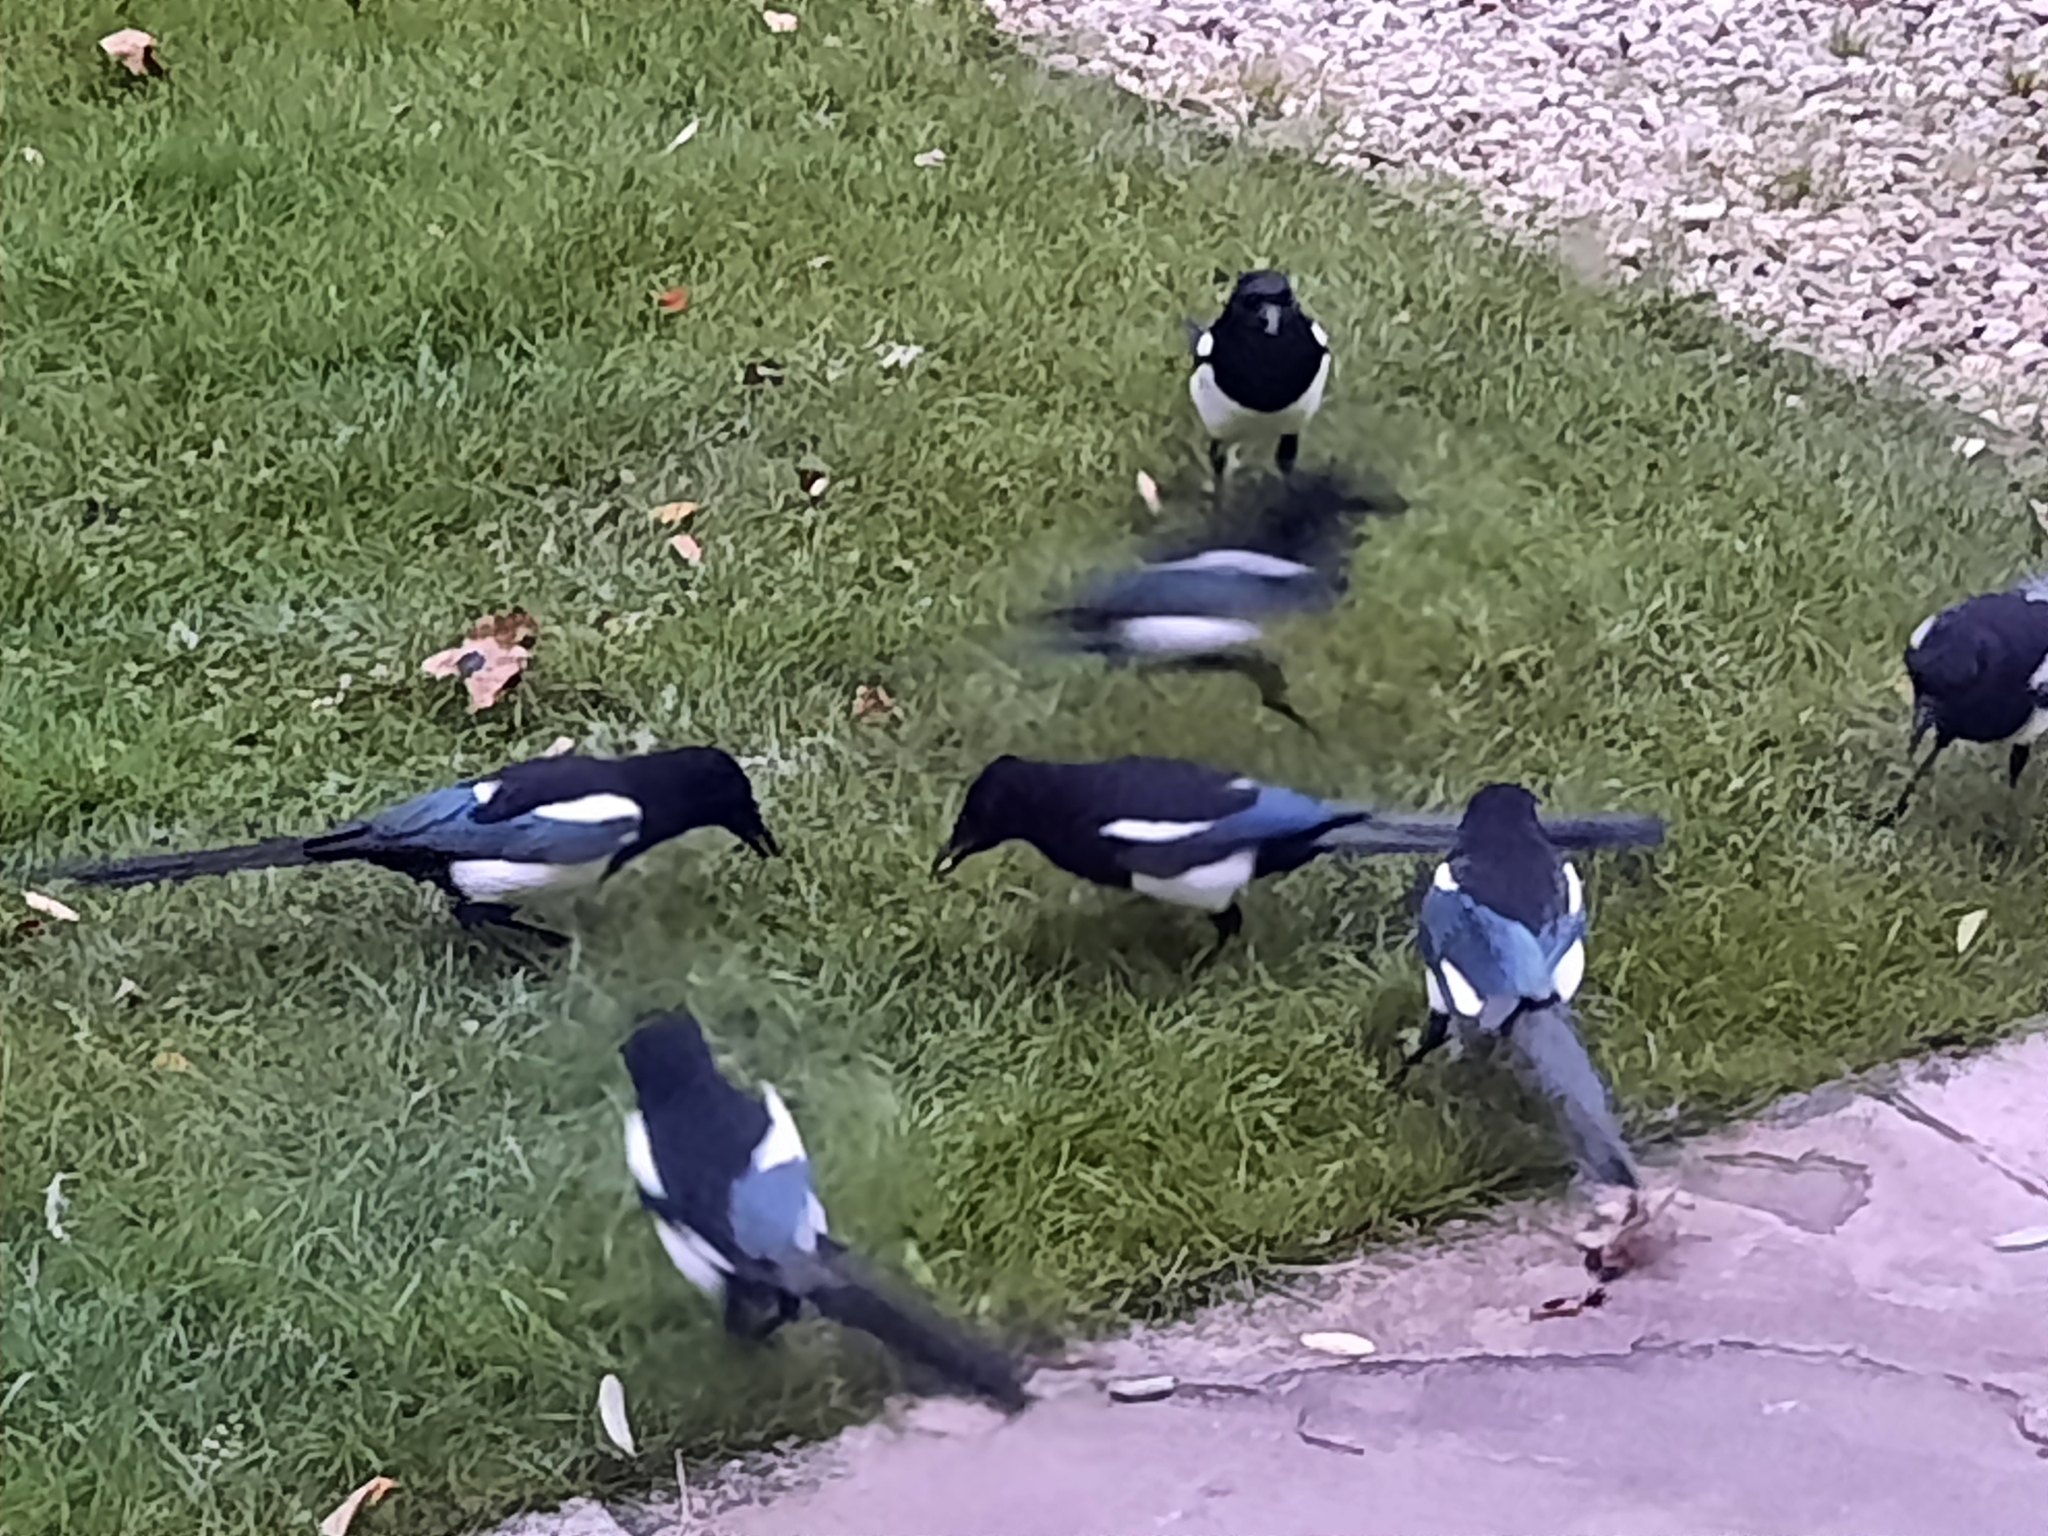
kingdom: Animalia
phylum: Chordata
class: Aves
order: Passeriformes
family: Corvidae
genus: Pica
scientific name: Pica pica
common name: Eurasian magpie
